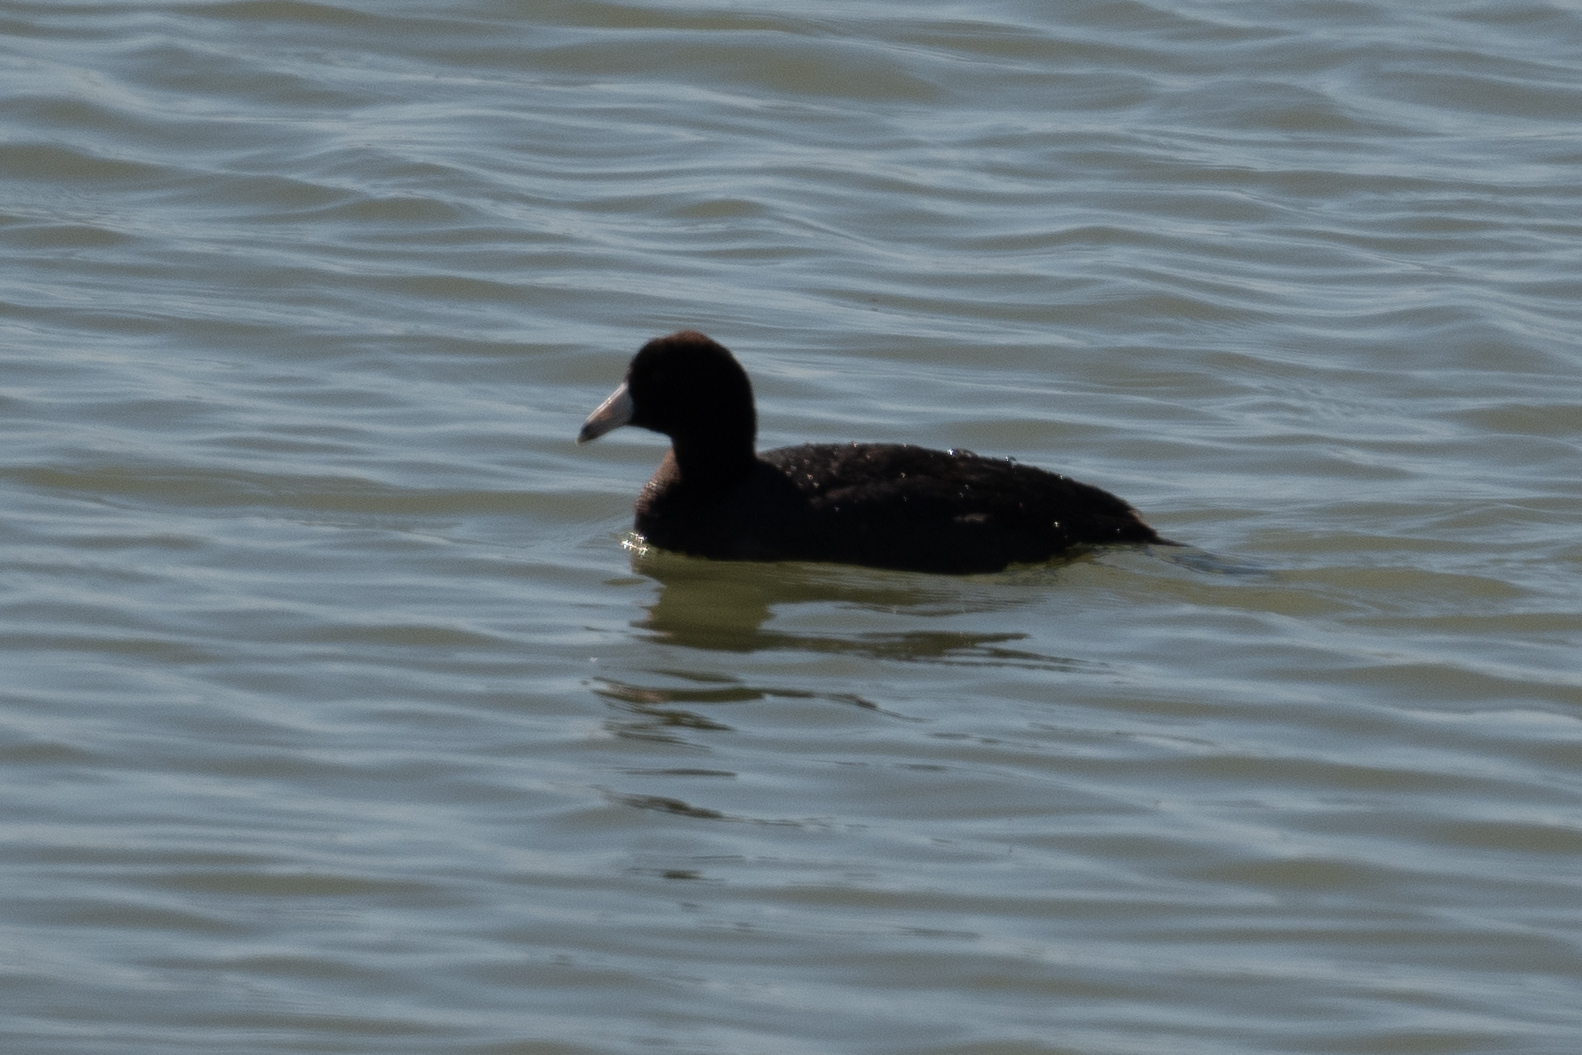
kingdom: Animalia
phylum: Chordata
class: Aves
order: Gruiformes
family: Rallidae
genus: Fulica
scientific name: Fulica americana
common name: American coot
